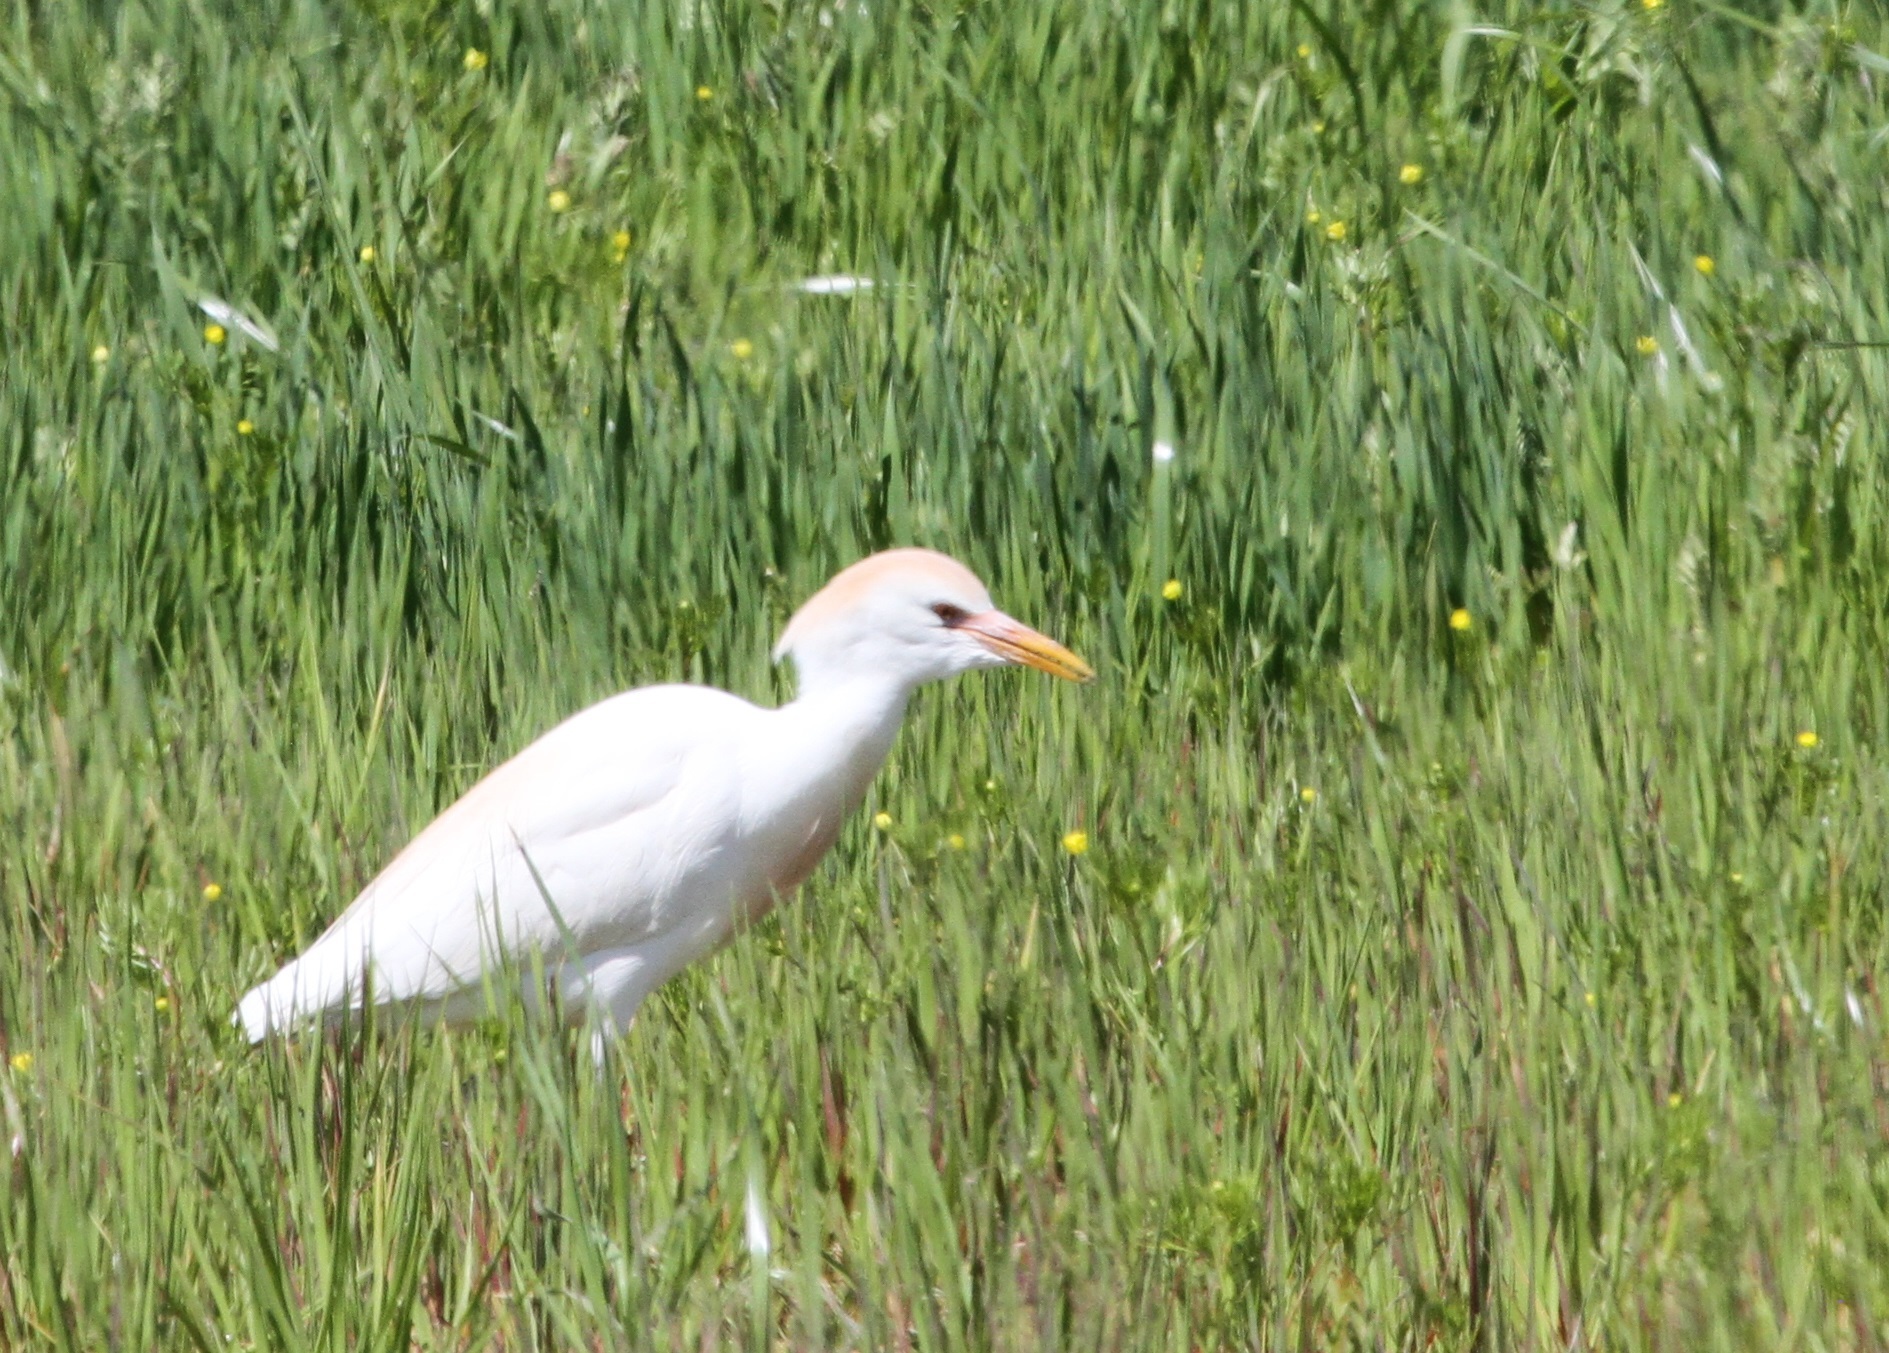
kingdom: Animalia
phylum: Chordata
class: Aves
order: Pelecaniformes
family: Ardeidae
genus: Bubulcus
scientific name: Bubulcus ibis
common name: Cattle egret
